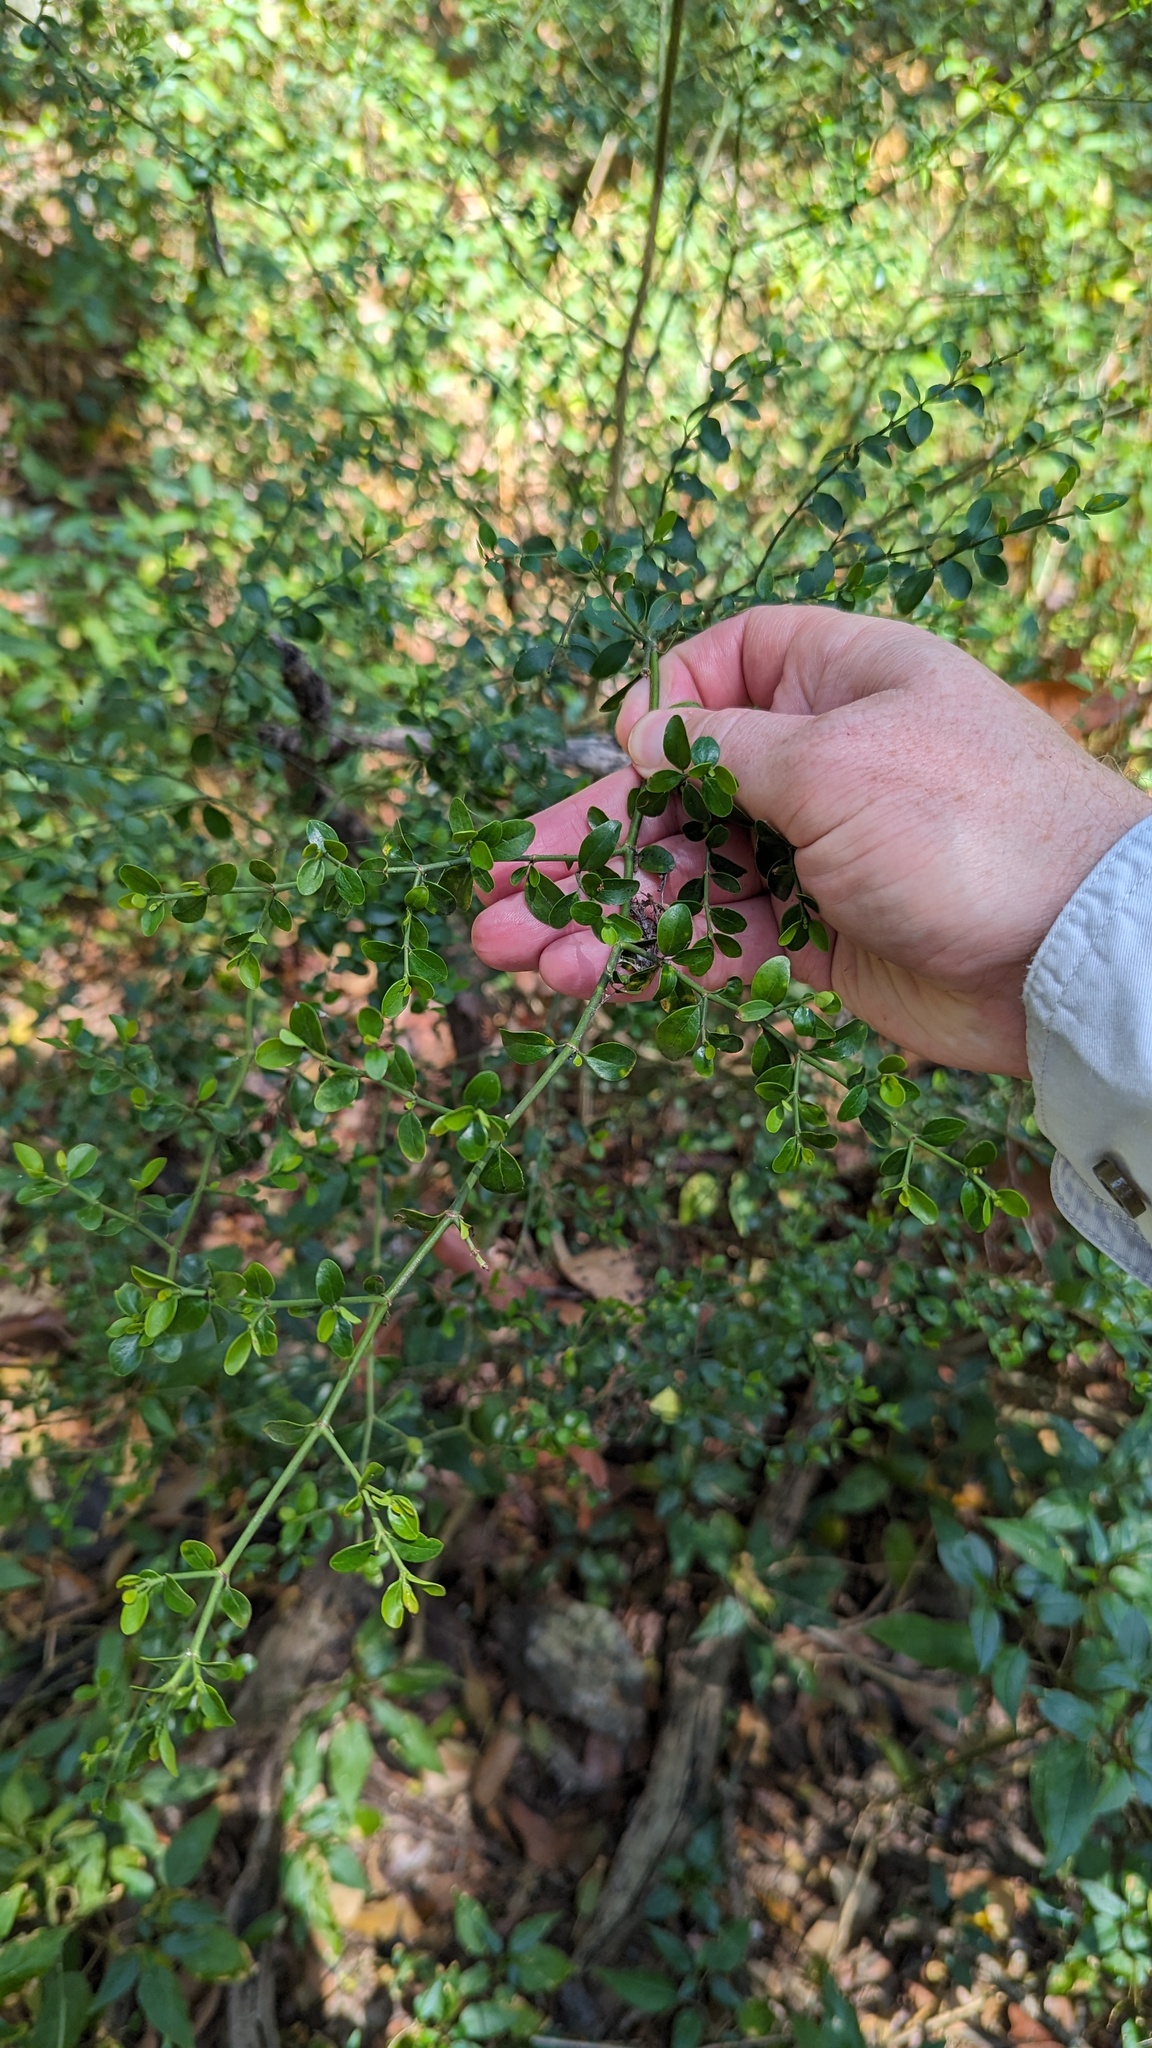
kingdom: Plantae
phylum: Tracheophyta
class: Magnoliopsida
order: Gentianales
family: Rubiaceae
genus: Everistia
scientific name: Everistia vacciniifolia
